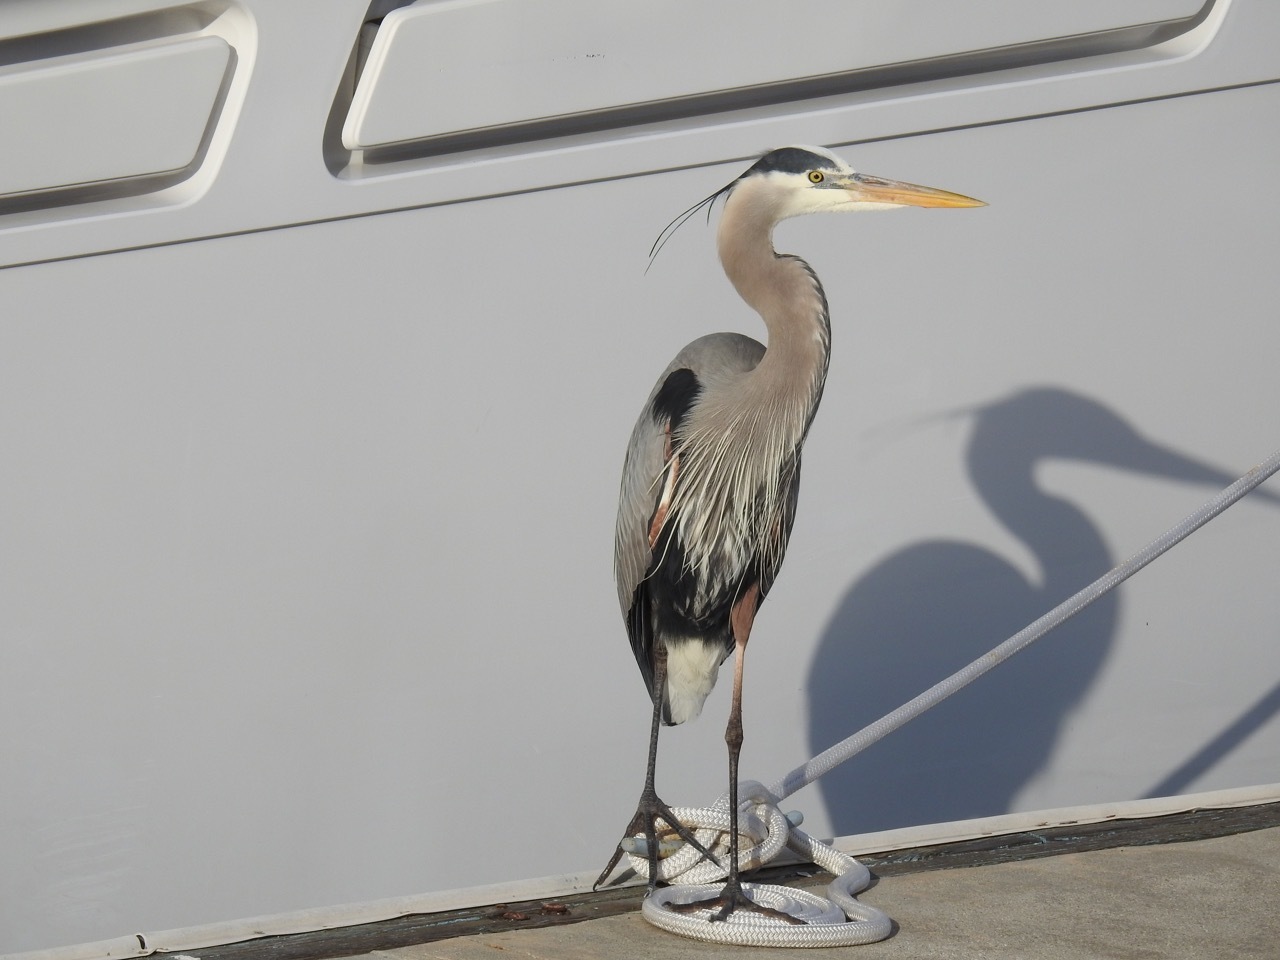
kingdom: Animalia
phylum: Chordata
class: Aves
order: Pelecaniformes
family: Ardeidae
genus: Ardea
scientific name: Ardea herodias
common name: Great blue heron
